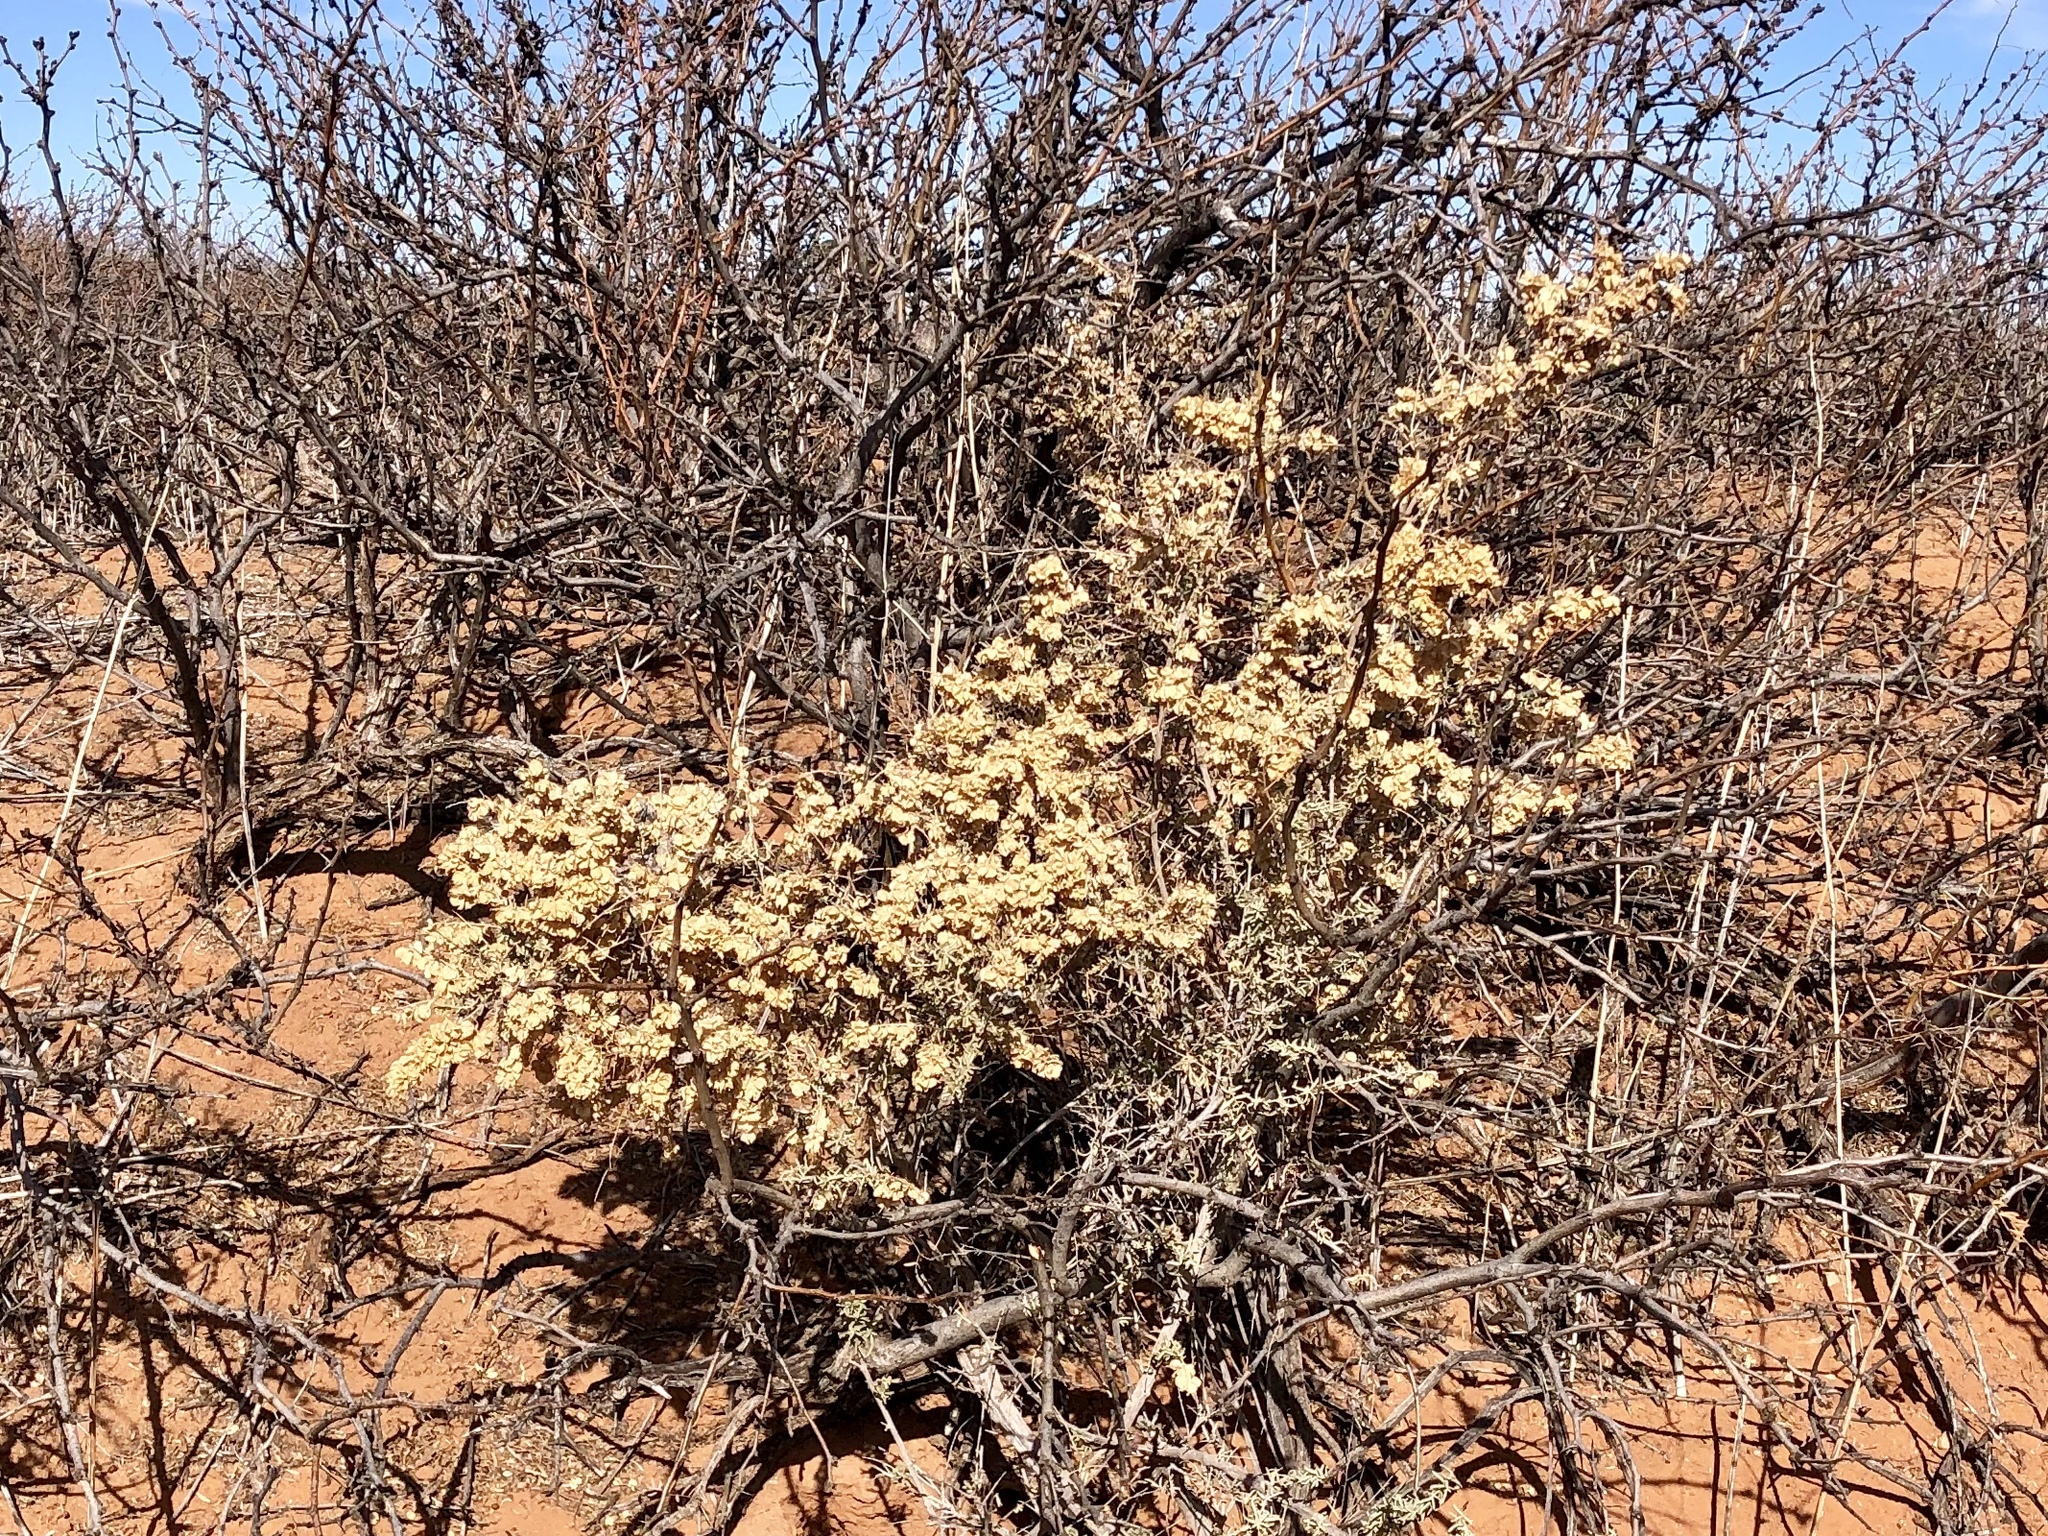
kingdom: Plantae
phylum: Tracheophyta
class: Magnoliopsida
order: Caryophyllales
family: Amaranthaceae
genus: Atriplex
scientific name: Atriplex canescens
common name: Four-wing saltbush
